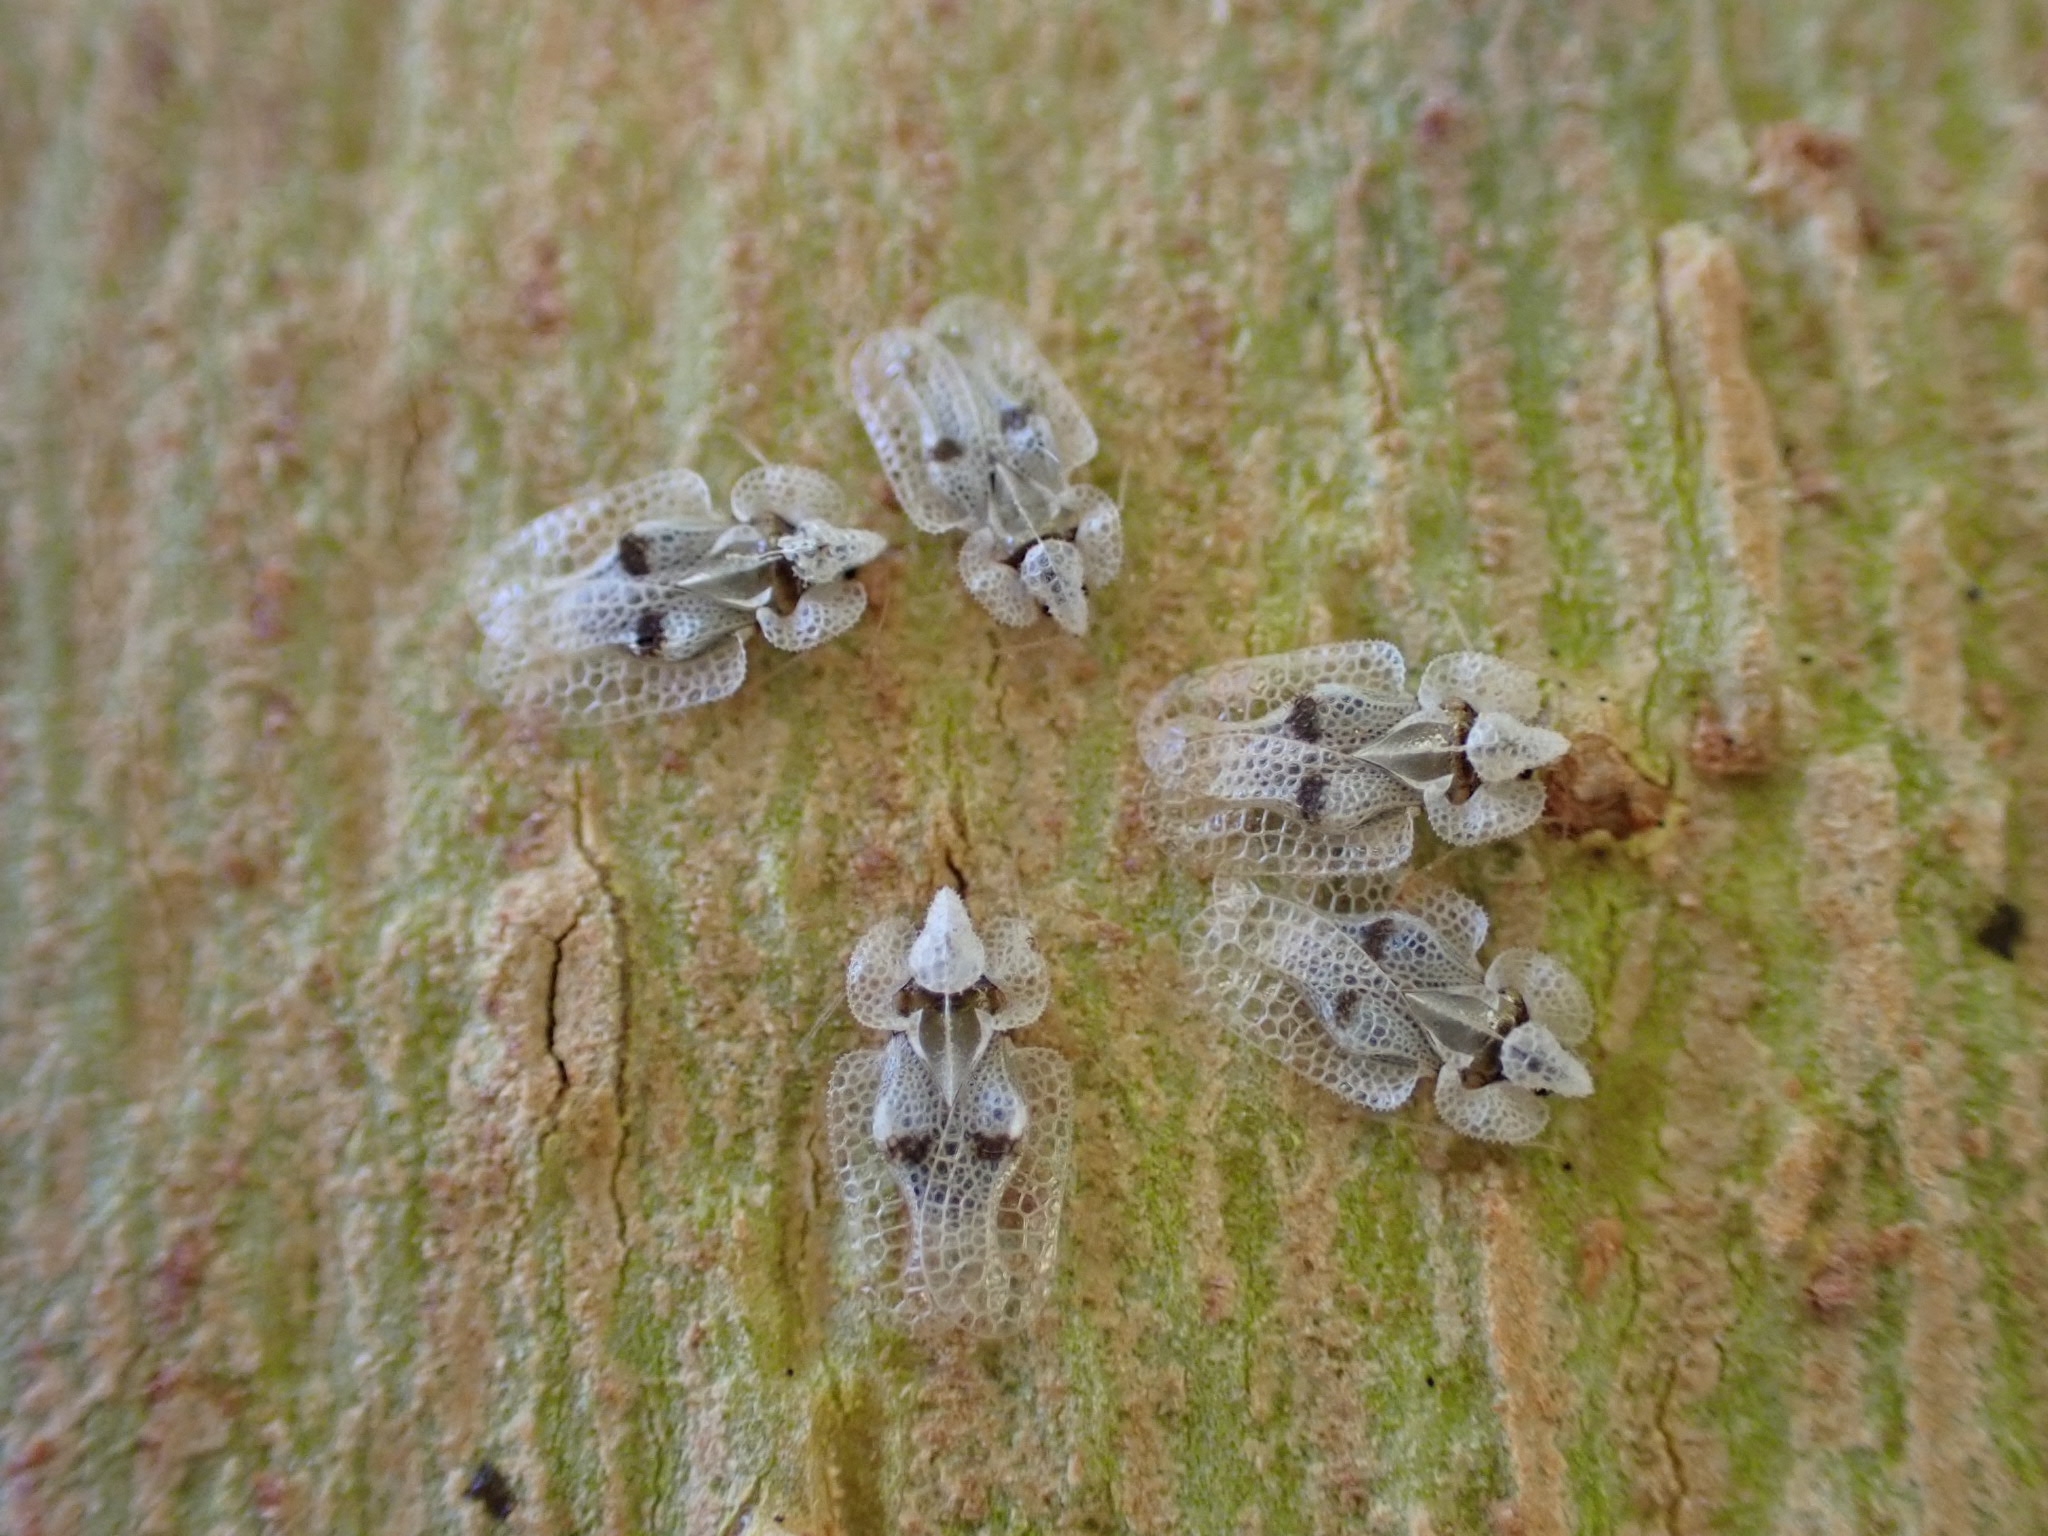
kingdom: Animalia
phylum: Arthropoda
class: Insecta
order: Hemiptera
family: Tingidae
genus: Corythucha
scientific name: Corythucha ciliata
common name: Sycamore lace bug
